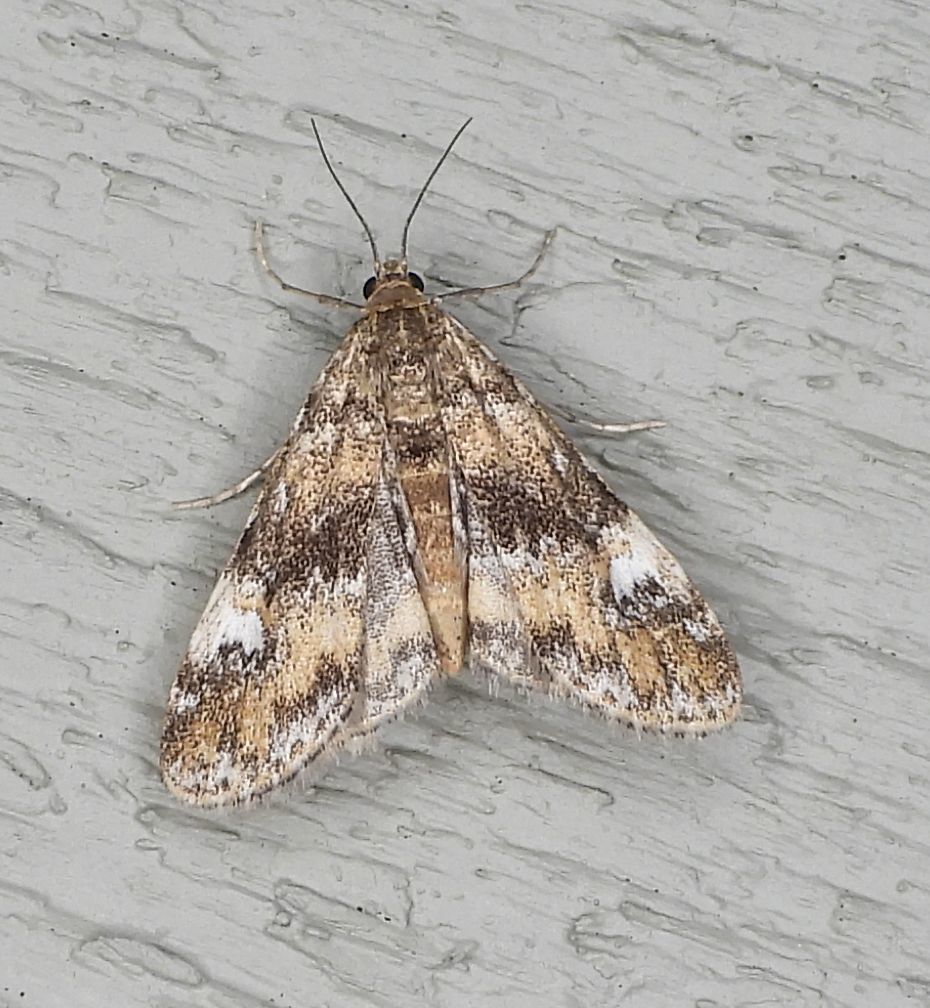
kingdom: Animalia
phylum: Arthropoda
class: Insecta
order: Lepidoptera
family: Crambidae
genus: Elophila
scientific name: Elophila obliteralis
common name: Waterlily leafcutter moth
